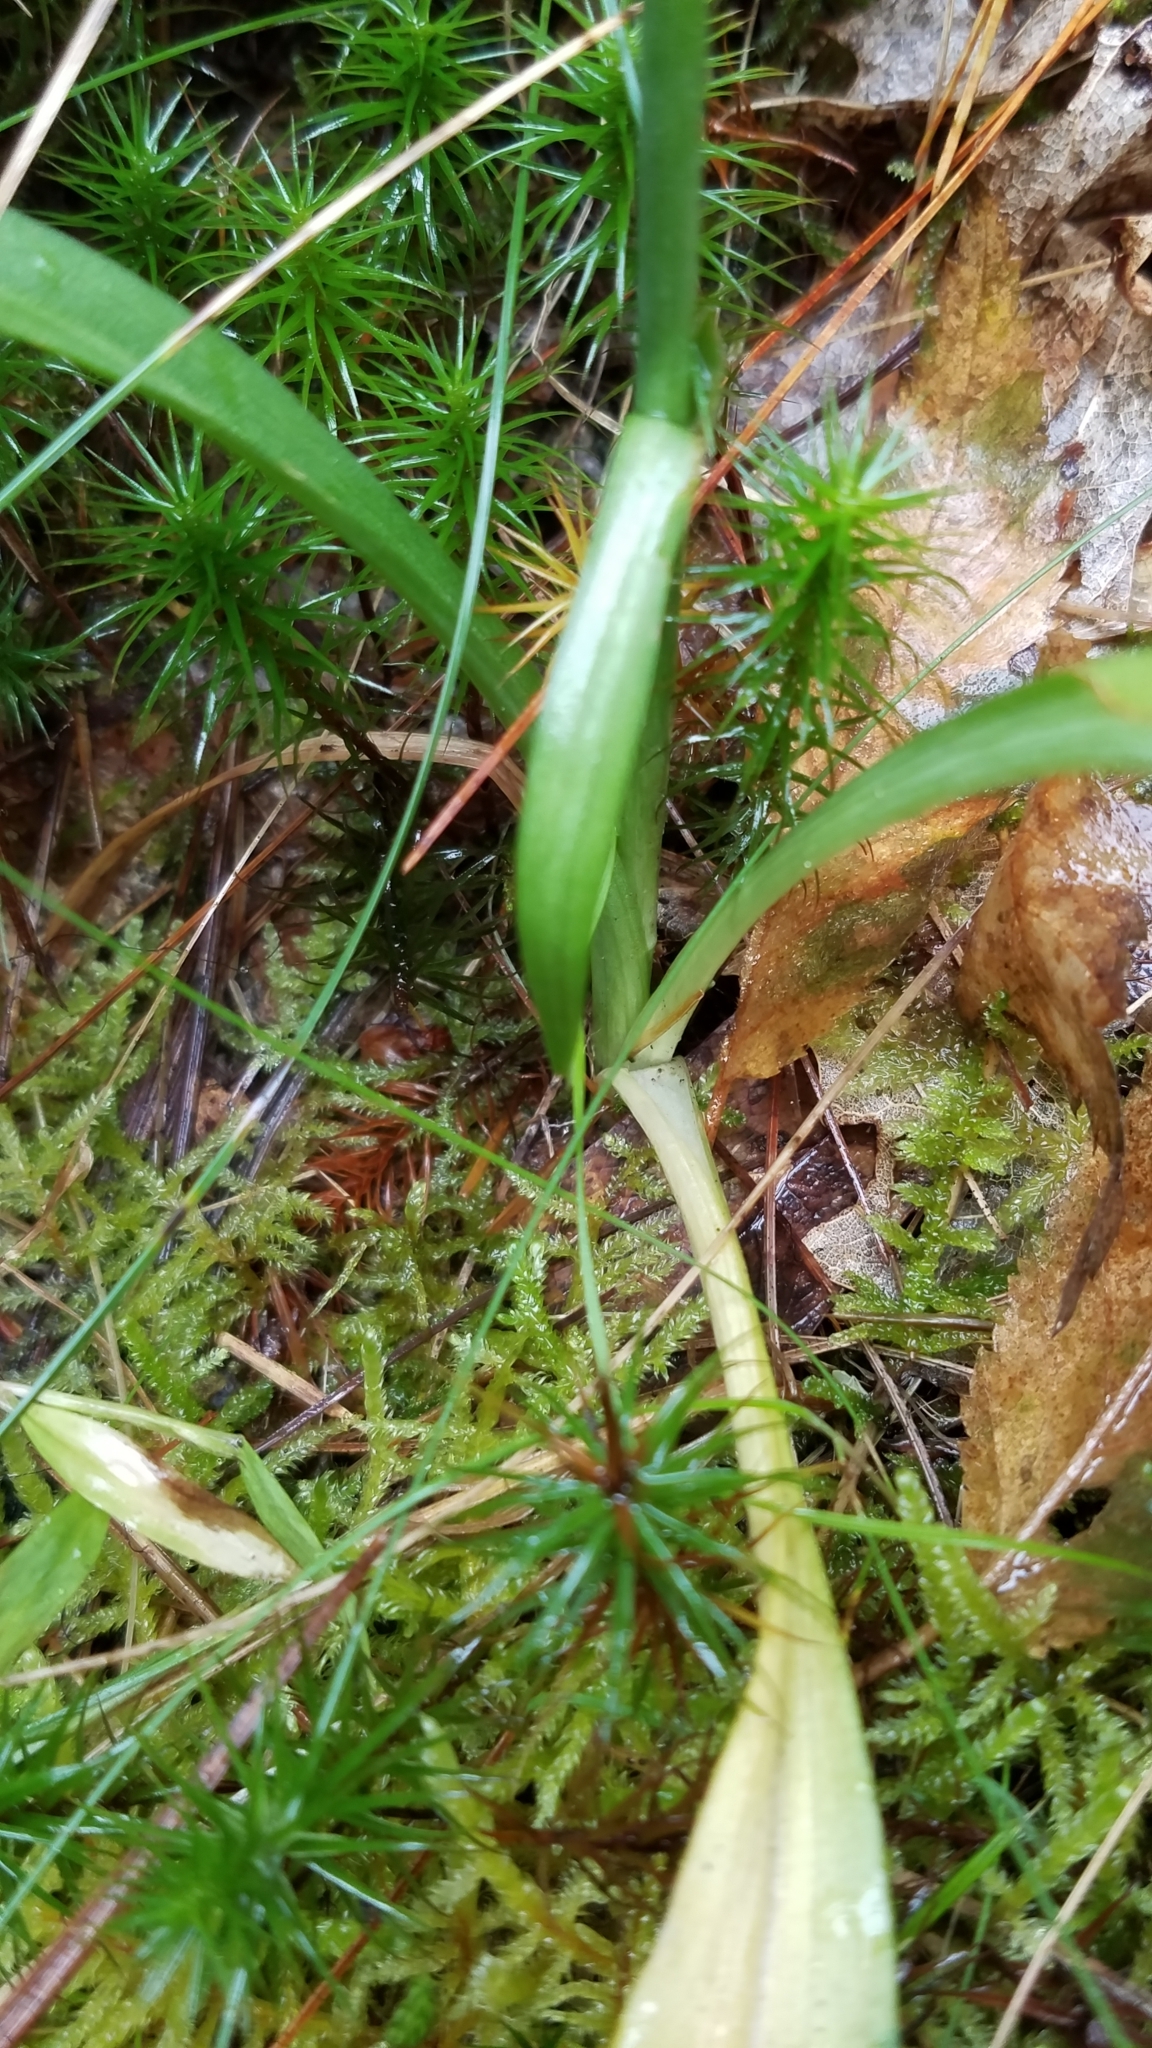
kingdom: Plantae
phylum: Tracheophyta
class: Liliopsida
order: Asparagales
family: Orchidaceae
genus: Spiranthes
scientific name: Spiranthes ochroleuca
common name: Yellow ladies'-tresses
